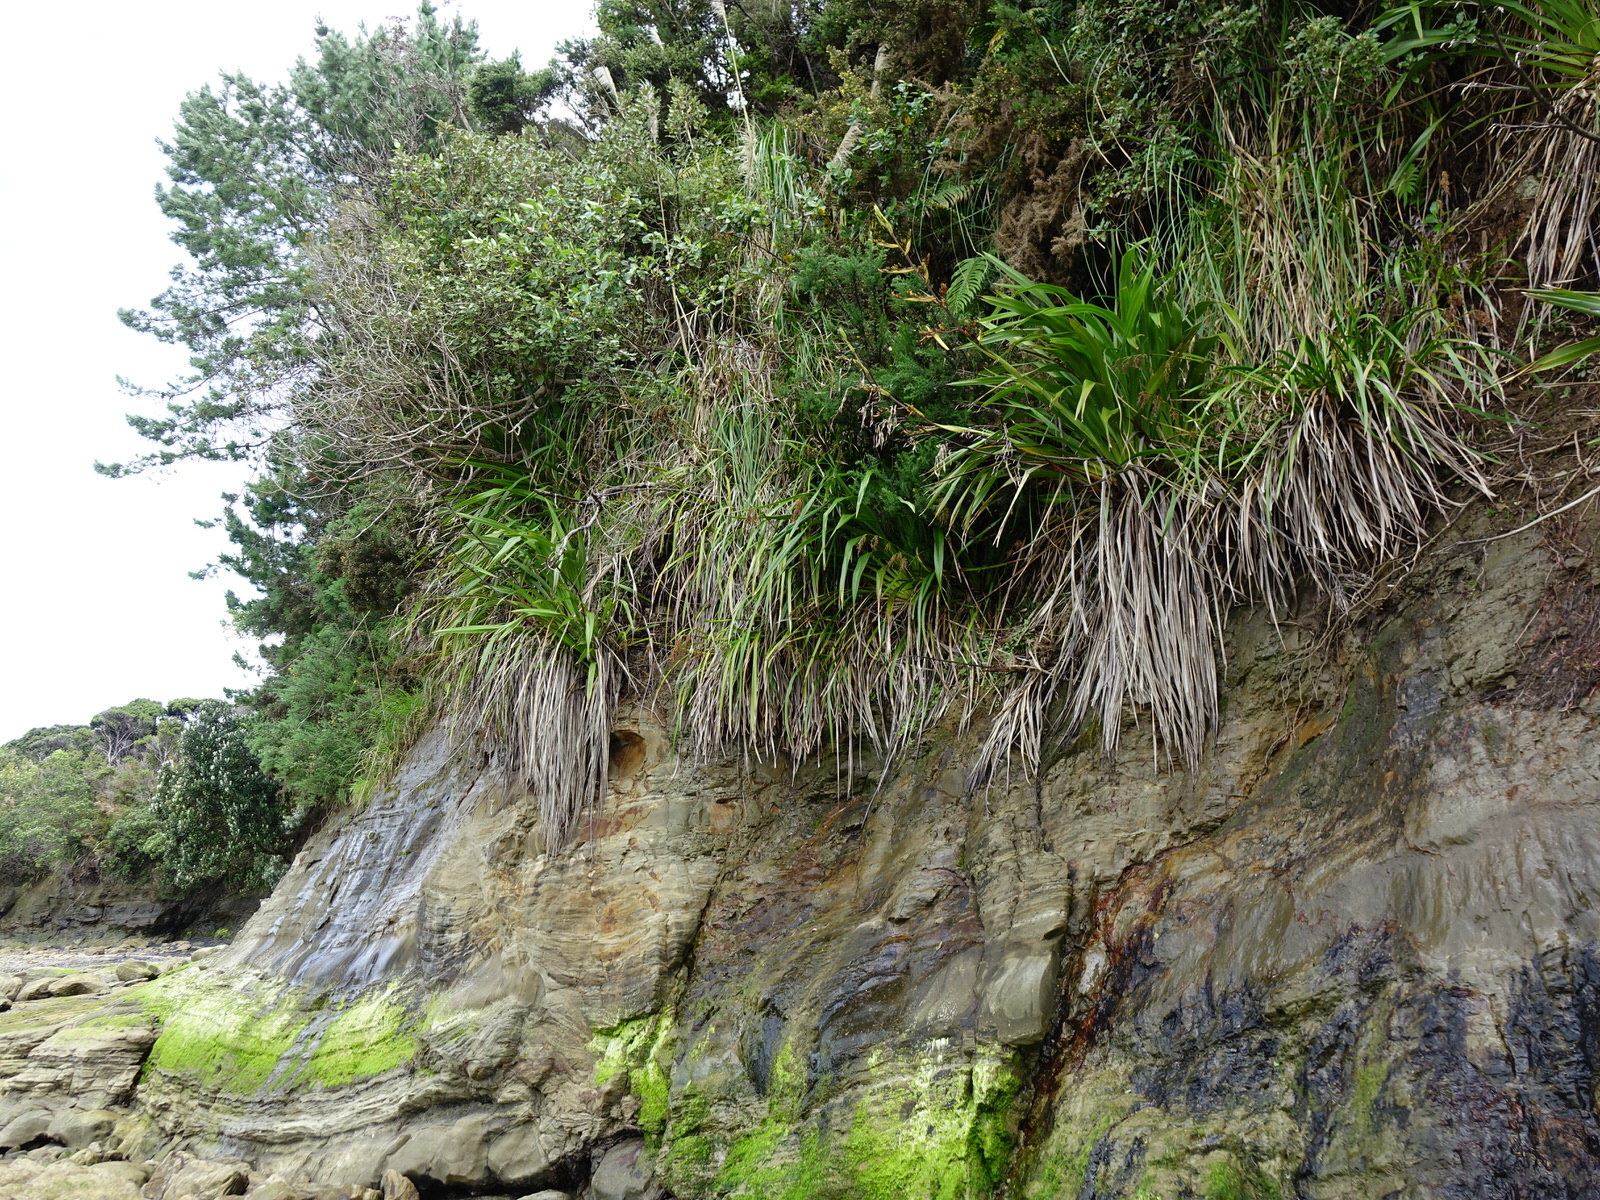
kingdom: Plantae
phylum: Tracheophyta
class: Liliopsida
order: Asparagales
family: Asphodelaceae
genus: Phormium
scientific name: Phormium colensoi
